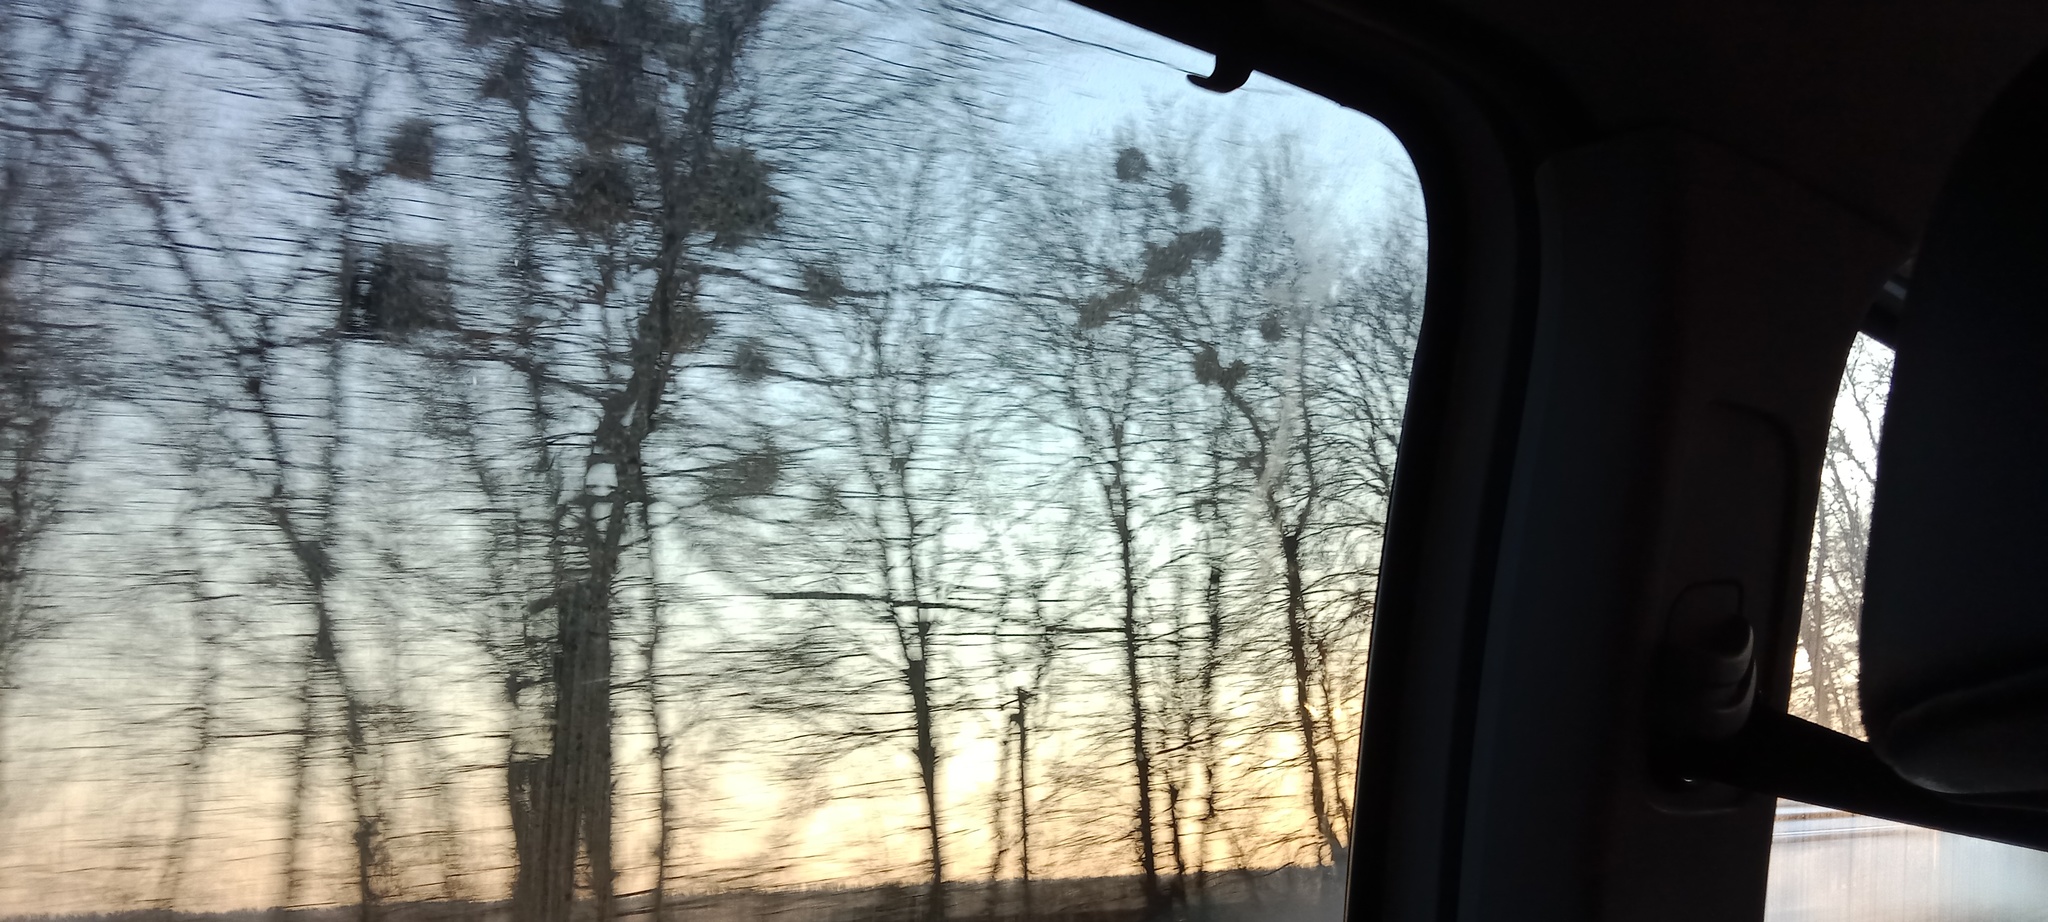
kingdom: Plantae
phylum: Tracheophyta
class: Magnoliopsida
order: Santalales
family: Viscaceae
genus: Viscum
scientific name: Viscum album
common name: Mistletoe
